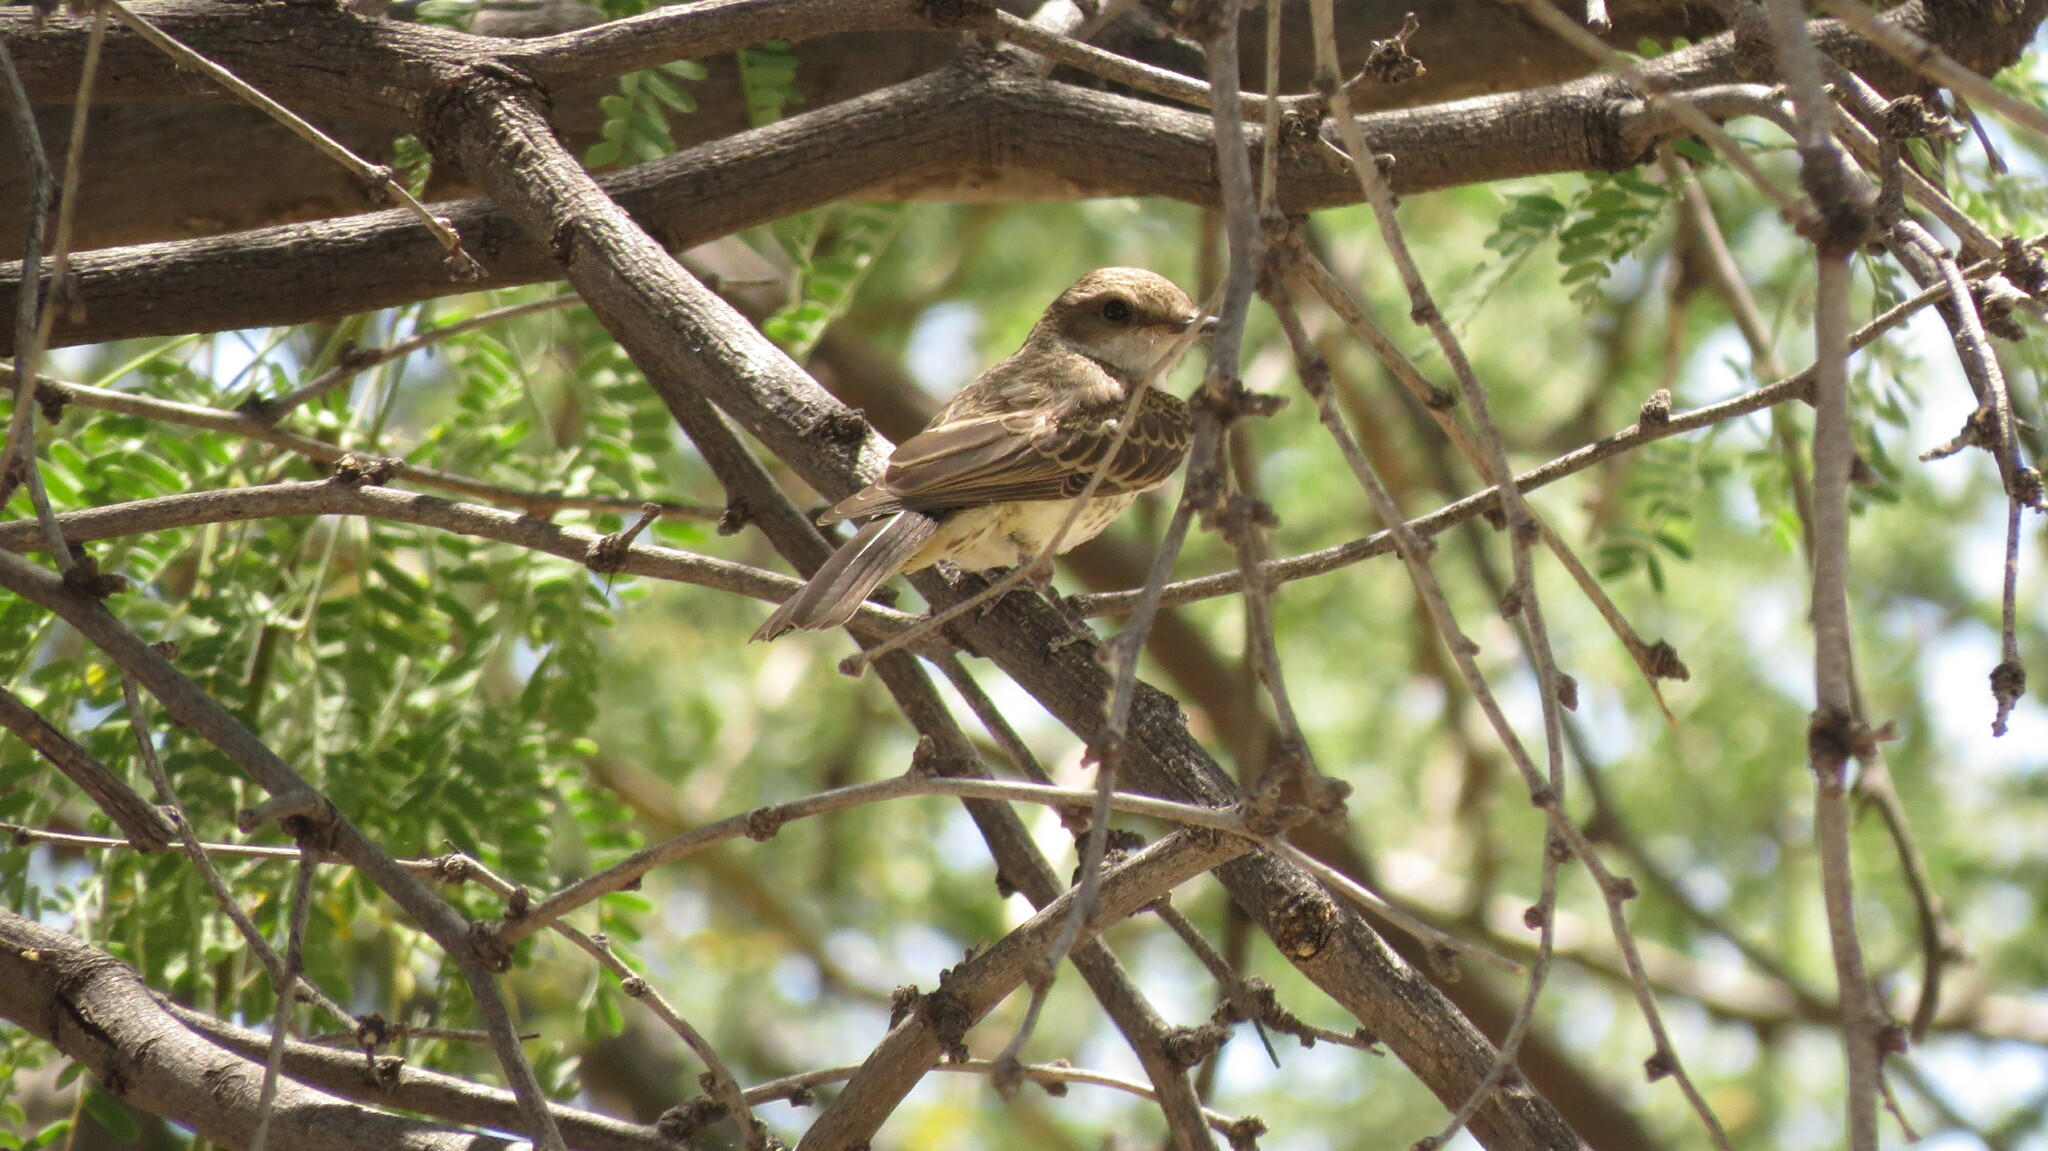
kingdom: Animalia
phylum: Chordata
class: Aves
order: Passeriformes
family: Tyrannidae
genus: Pyrocephalus
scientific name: Pyrocephalus rubinus
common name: Vermilion flycatcher
